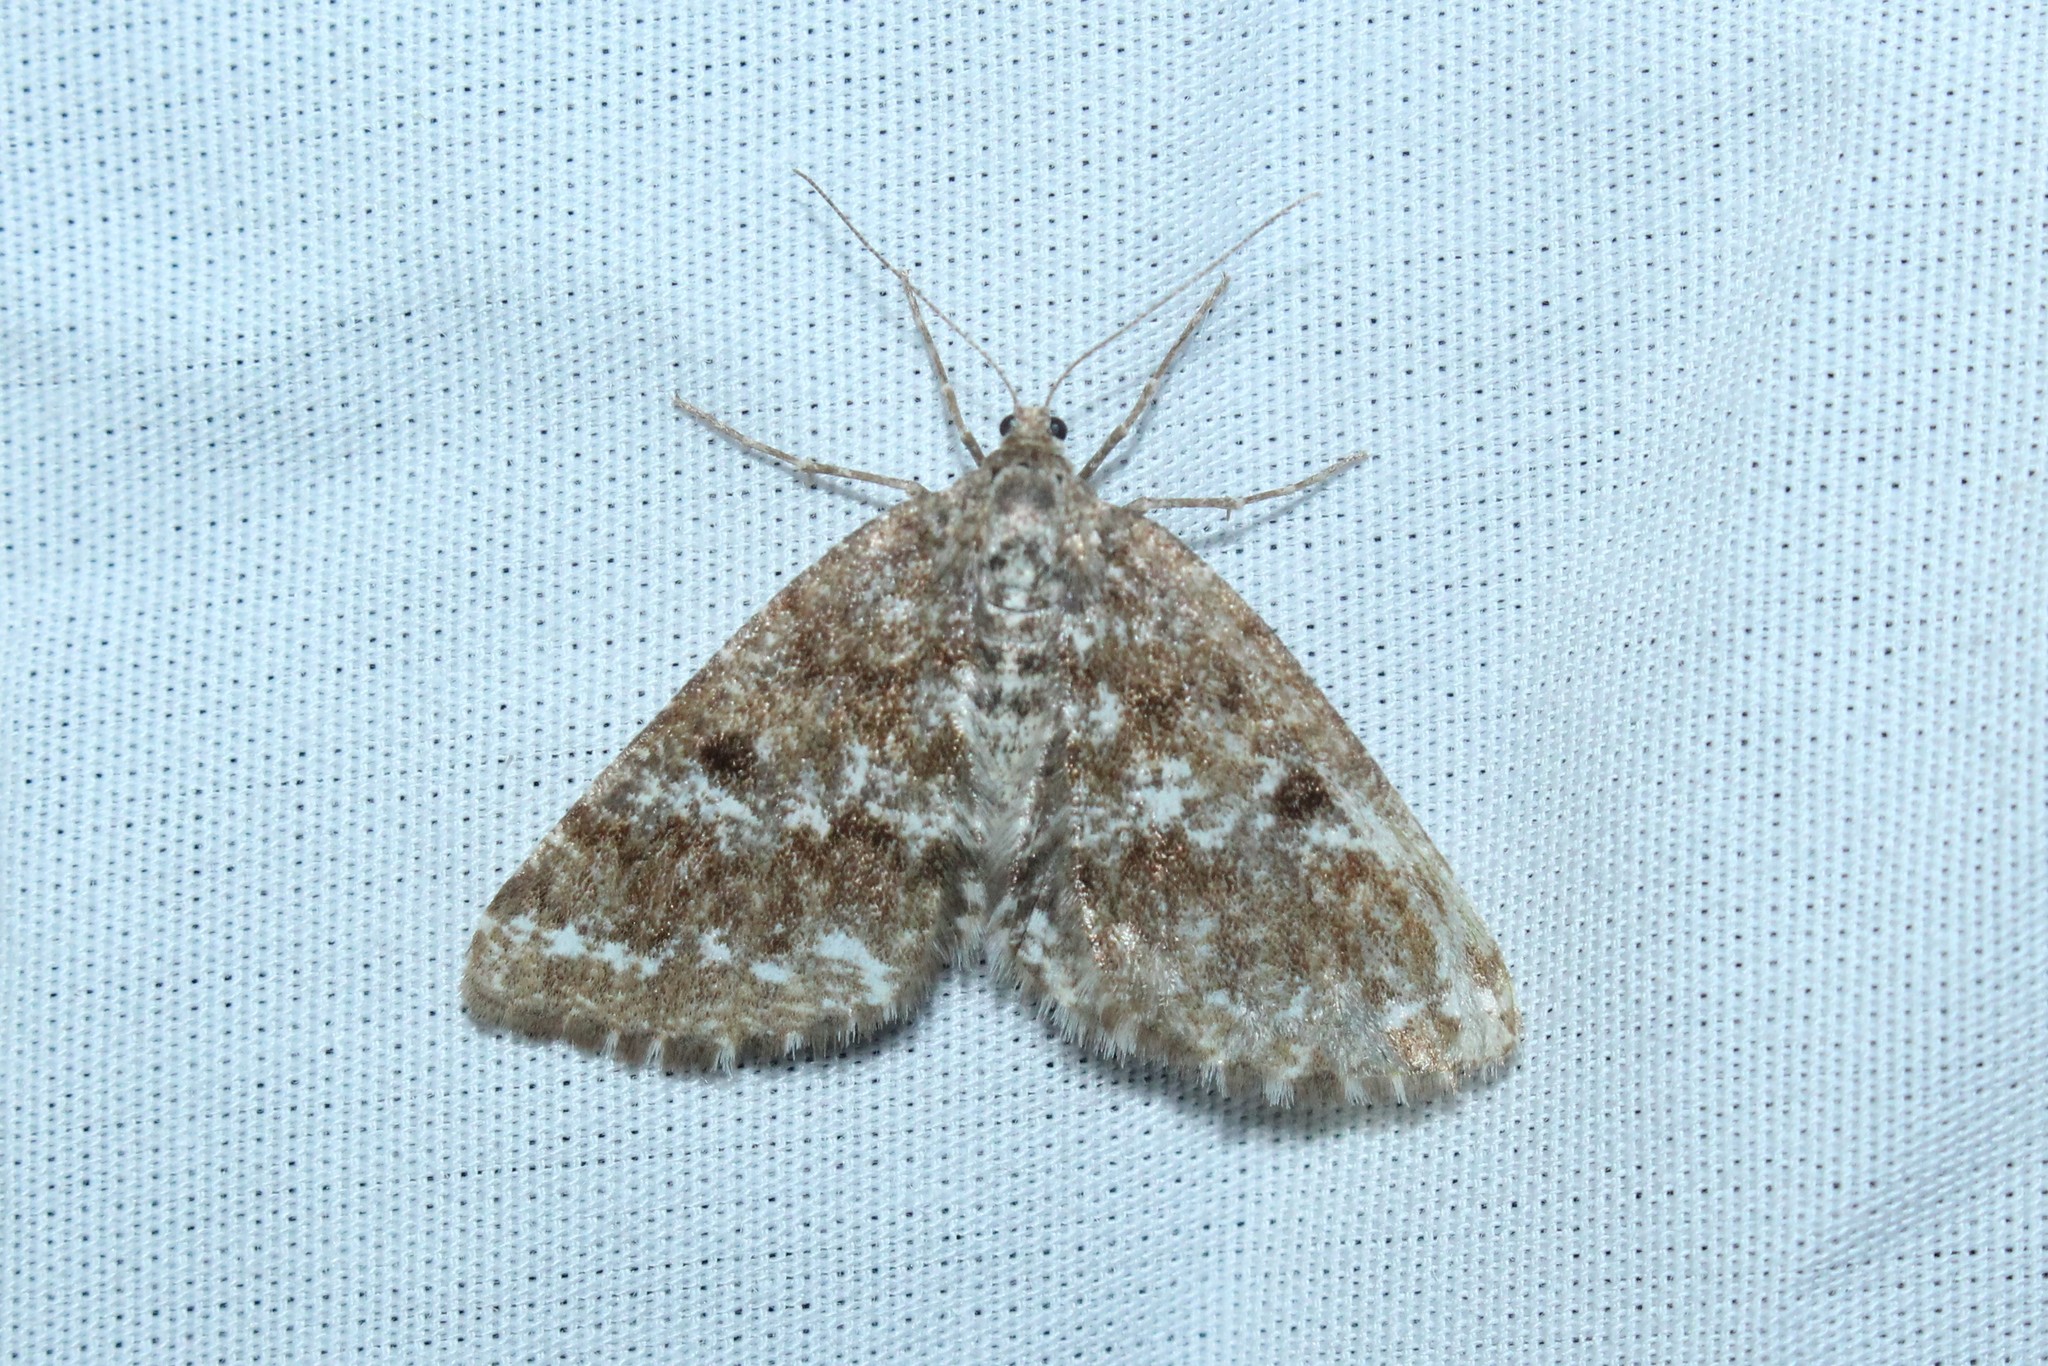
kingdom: Animalia
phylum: Arthropoda
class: Insecta
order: Lepidoptera
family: Geometridae
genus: Eufidonia
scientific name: Eufidonia notataria
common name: Powder moth
